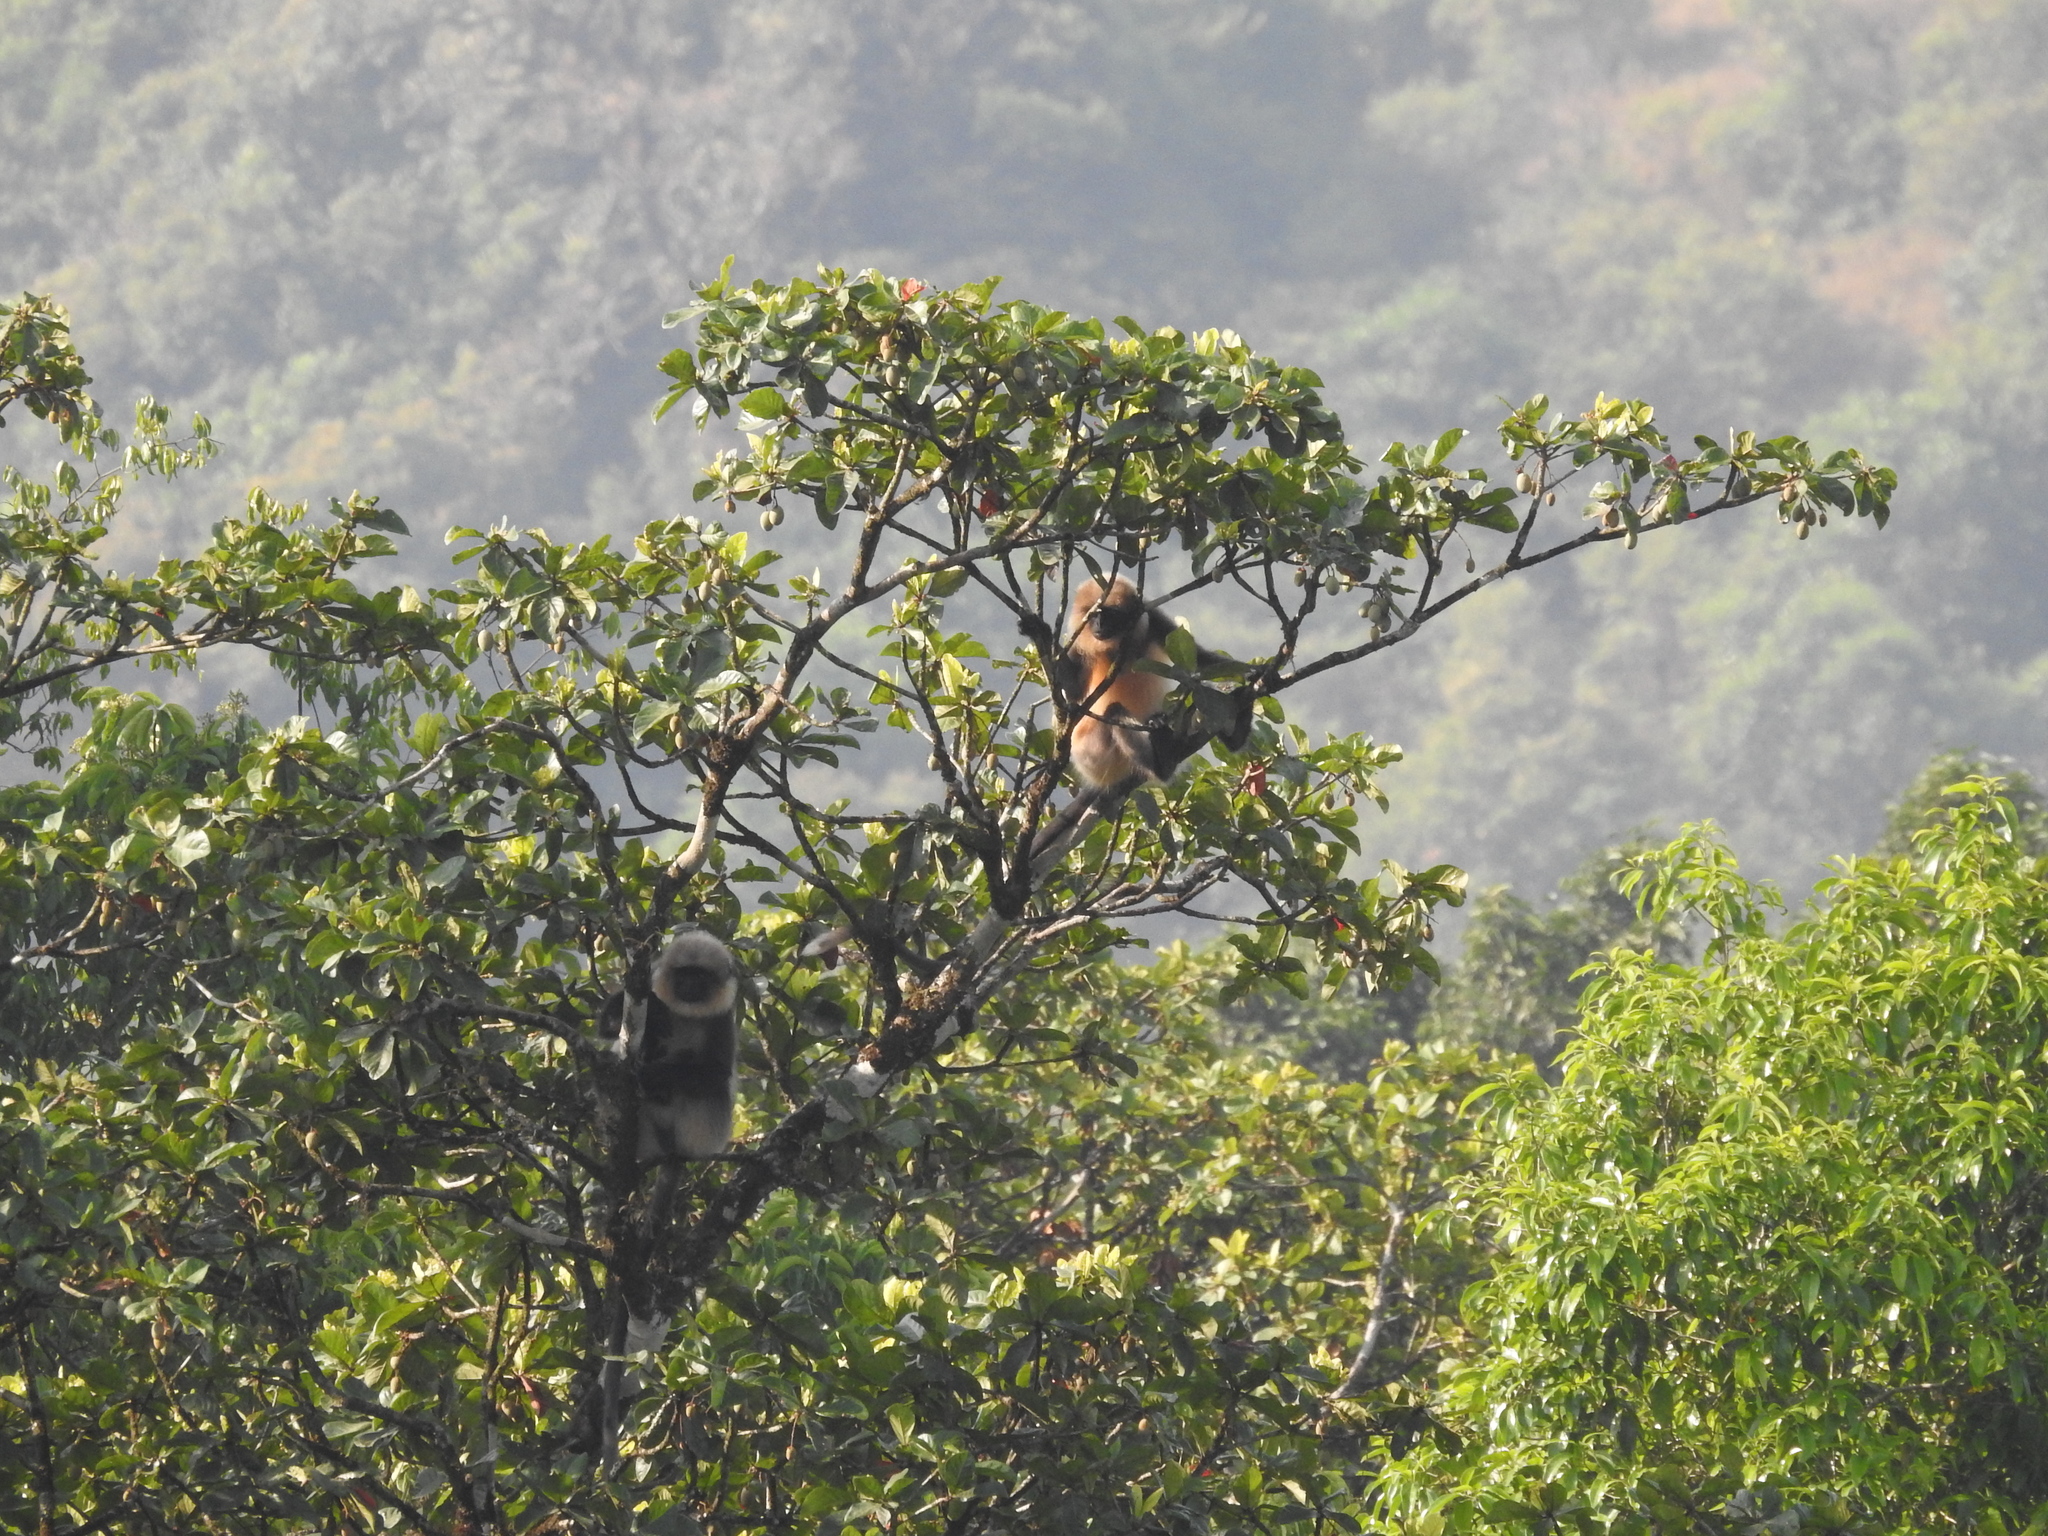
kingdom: Animalia
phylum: Chordata
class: Mammalia
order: Primates
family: Cercopithecidae
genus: Semnopithecus
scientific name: Semnopithecus hypoleucos
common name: Black-footed gray langur
